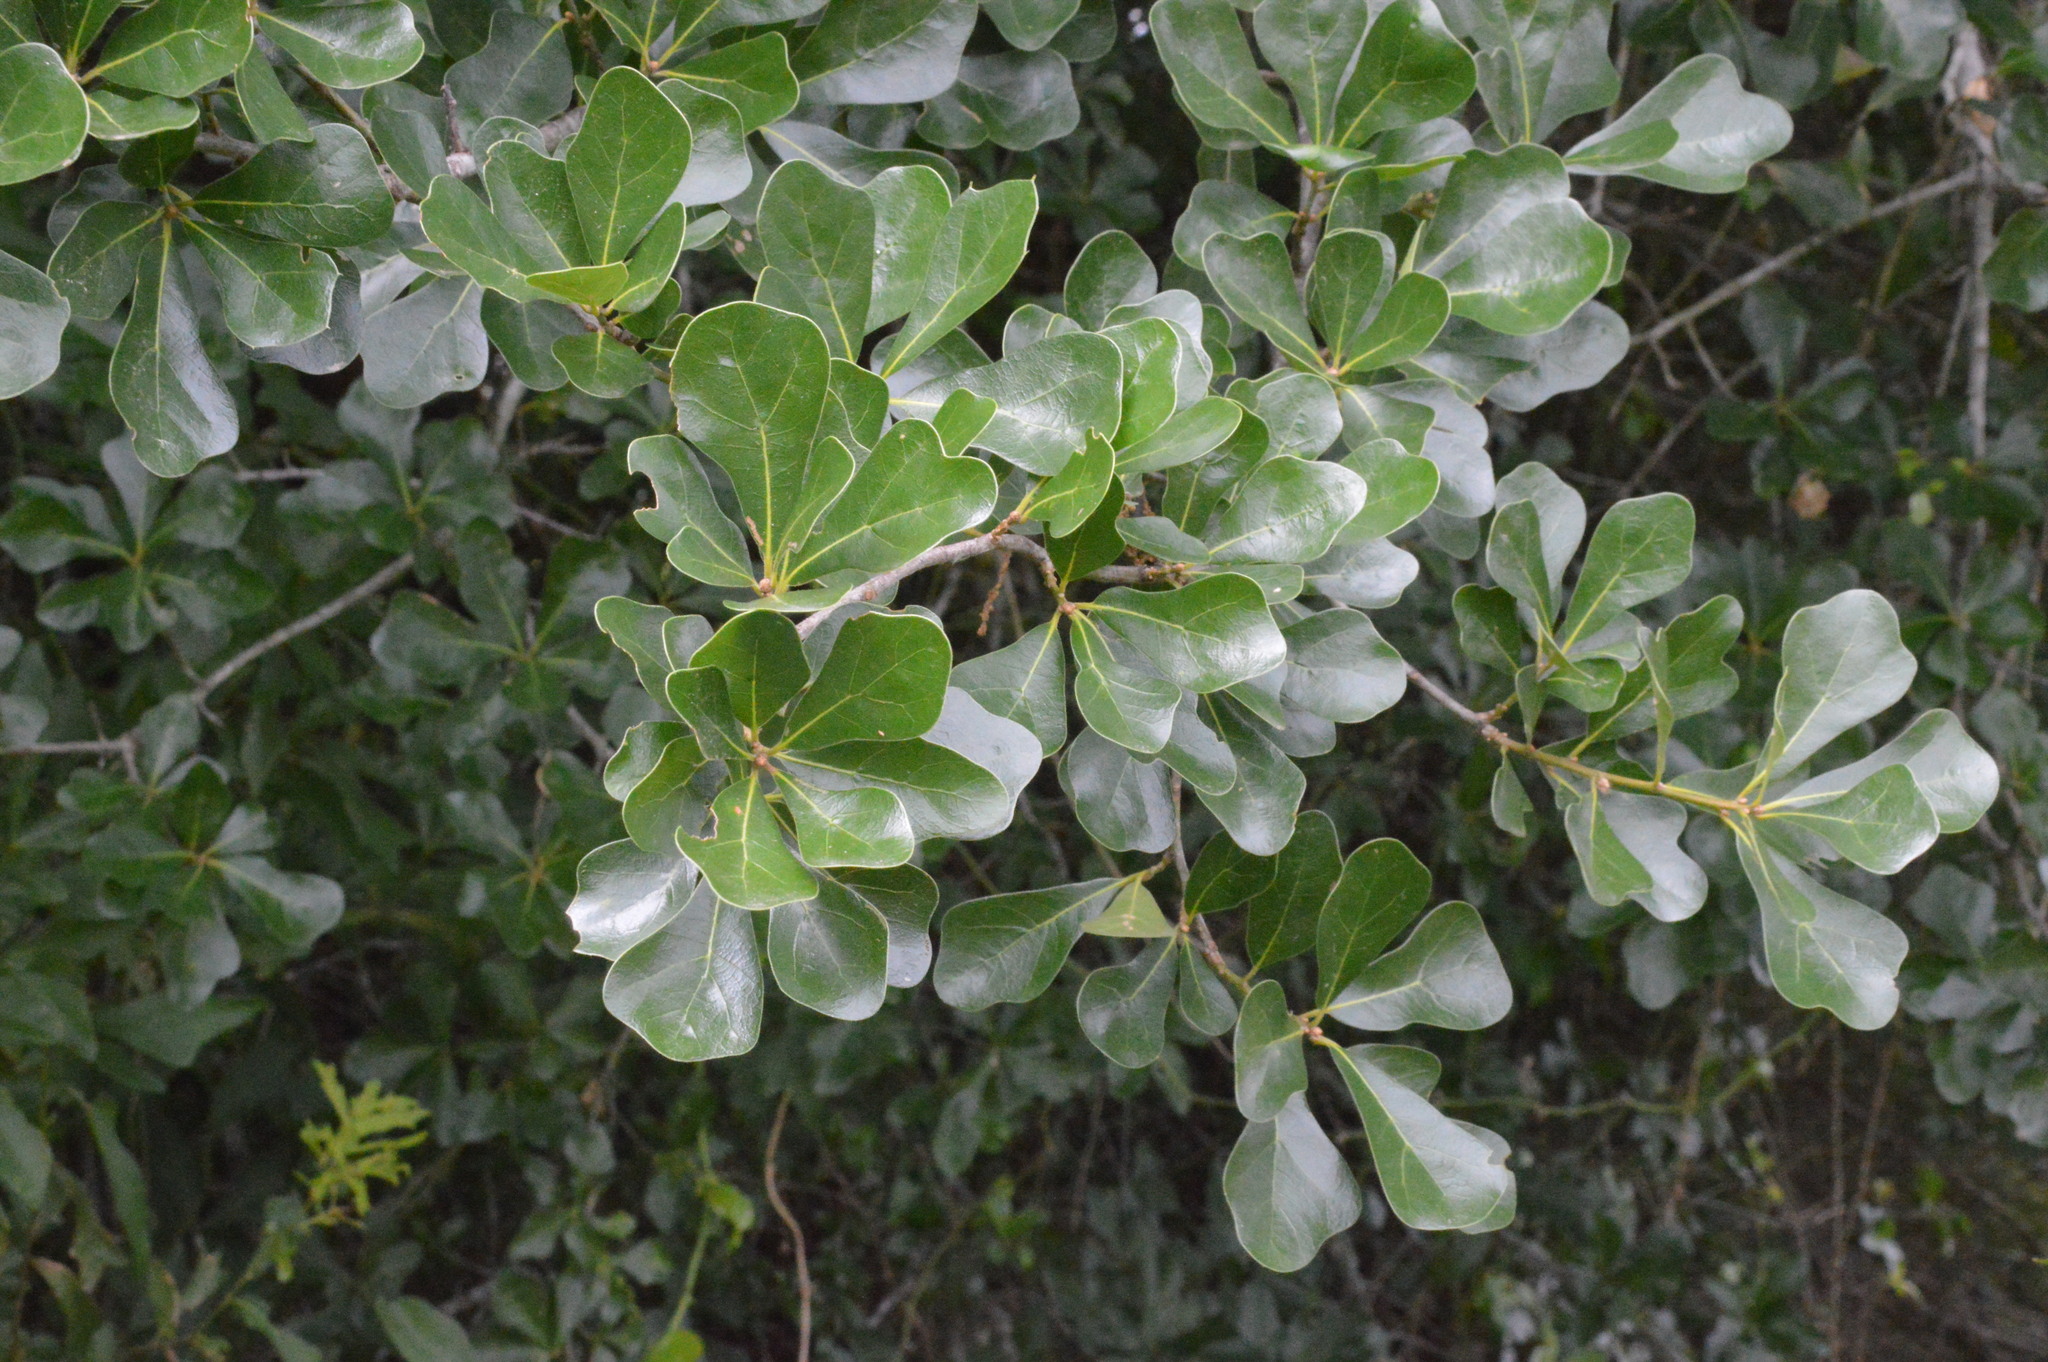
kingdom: Plantae
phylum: Tracheophyta
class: Magnoliopsida
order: Fagales
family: Fagaceae
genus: Quercus
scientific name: Quercus nigra
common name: Water oak
